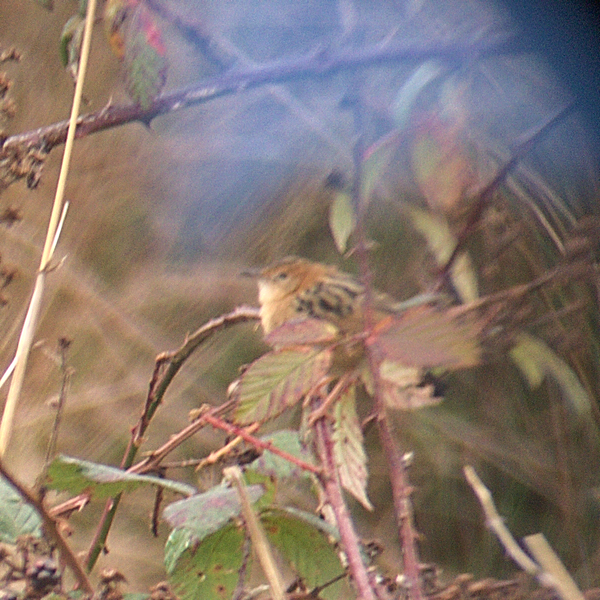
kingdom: Animalia
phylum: Chordata
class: Aves
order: Passeriformes
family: Cisticolidae
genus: Cisticola
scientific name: Cisticola exilis
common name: Golden-headed cisticola
